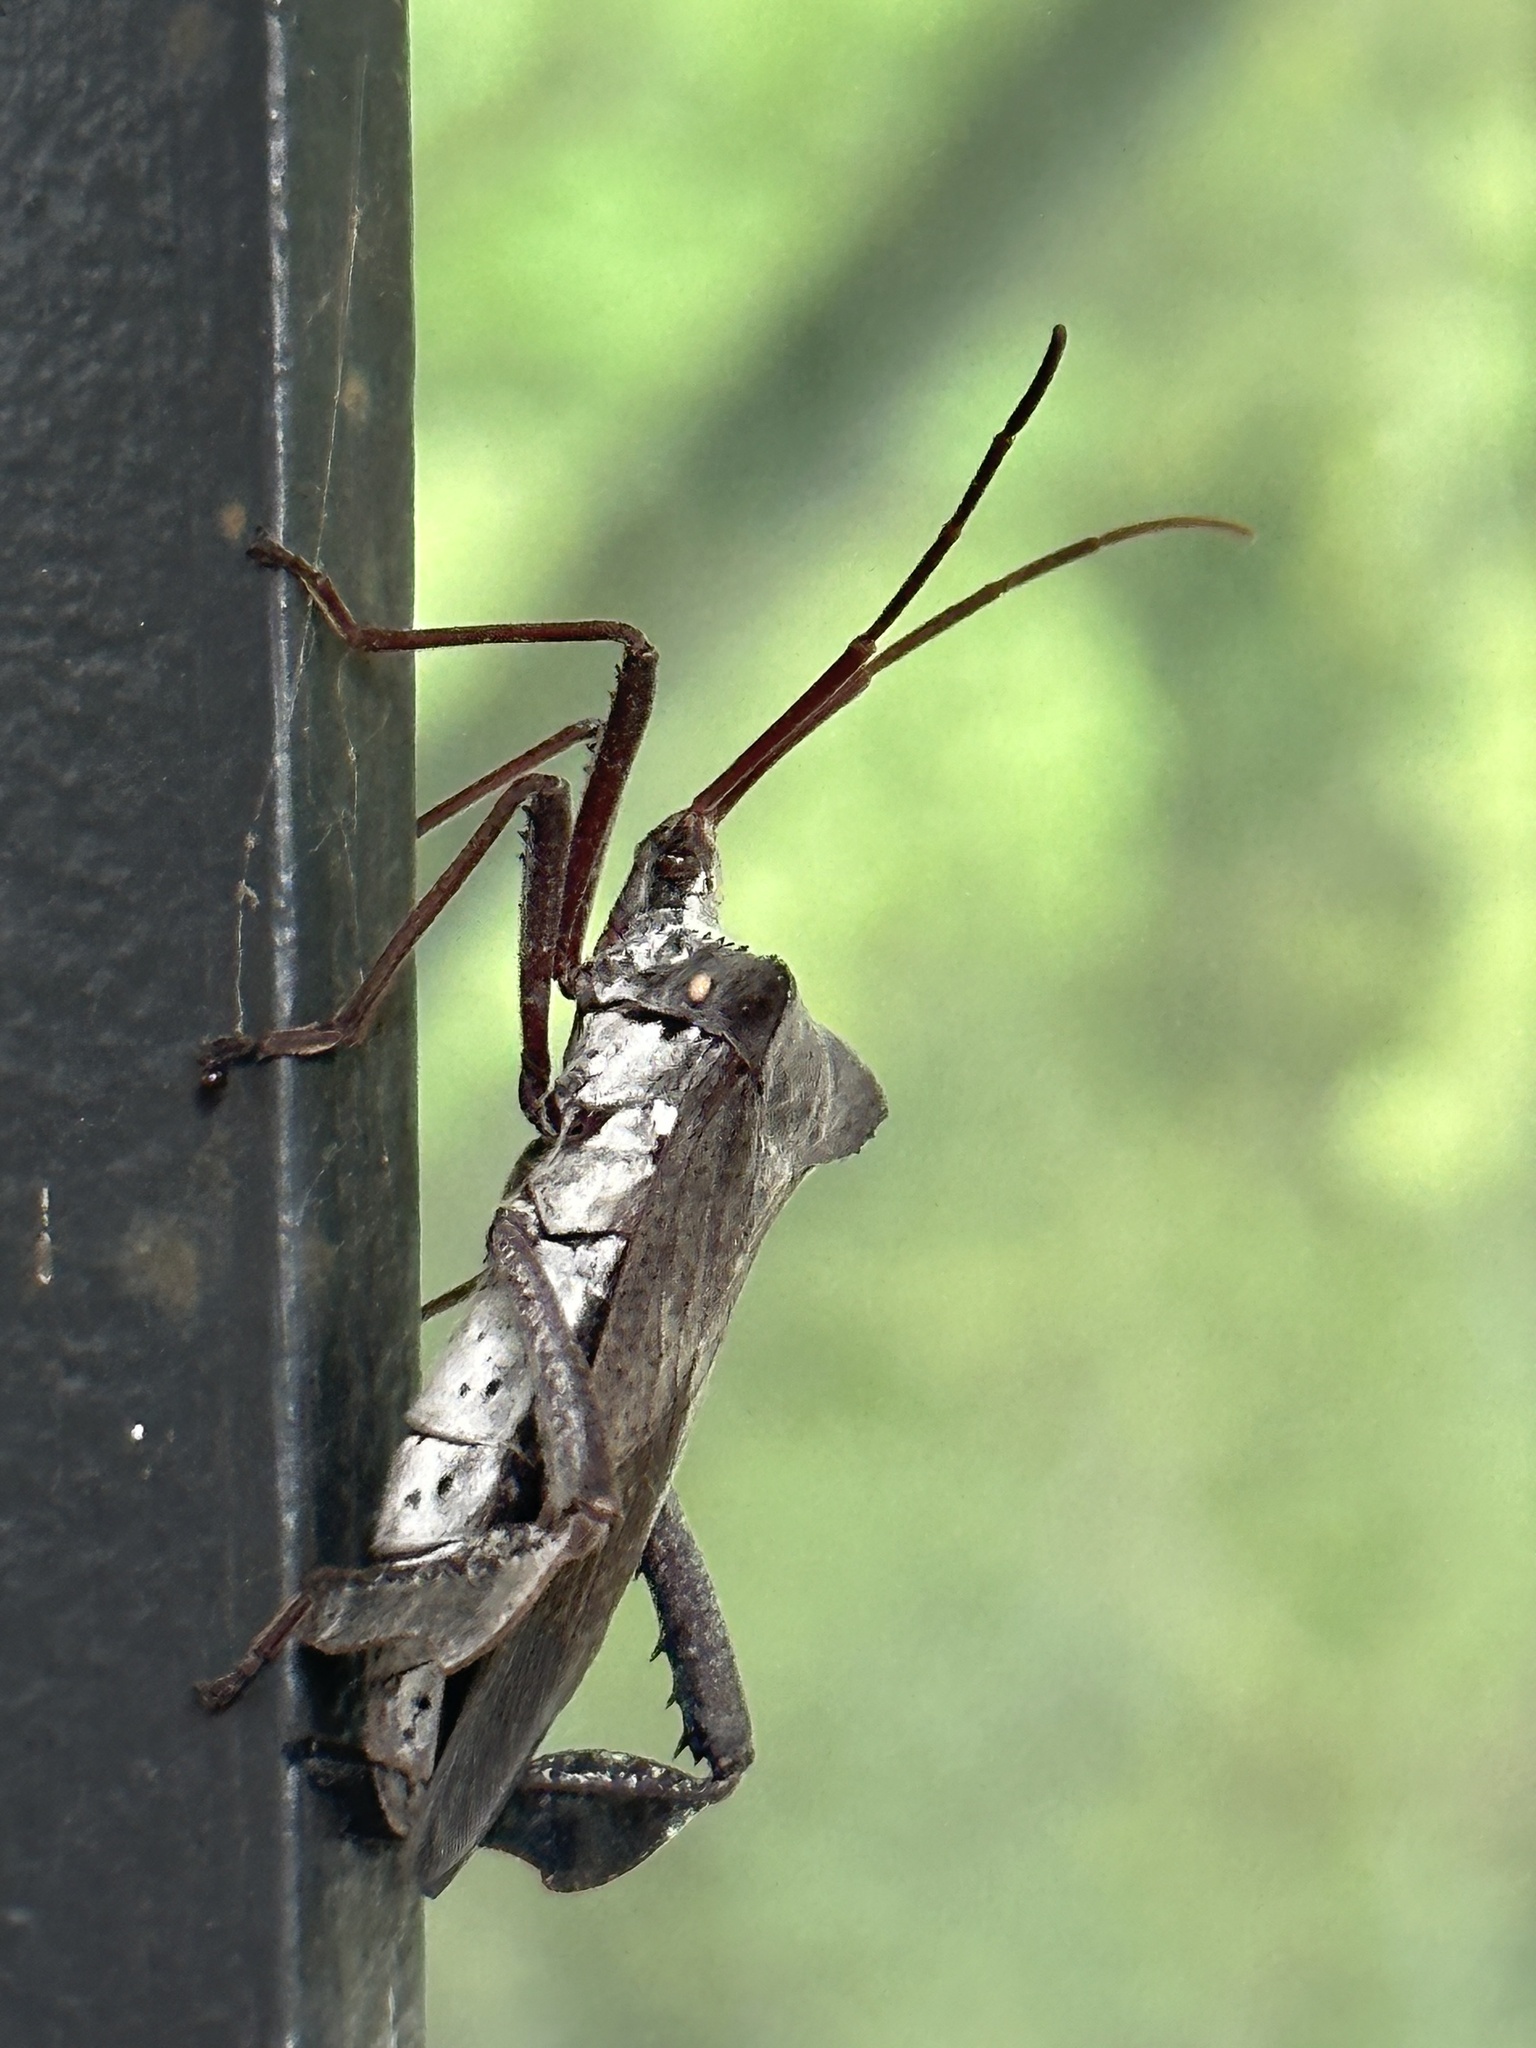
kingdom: Animalia
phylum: Arthropoda
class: Insecta
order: Hemiptera
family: Coreidae
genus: Acanthocephala
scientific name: Acanthocephala declivis
